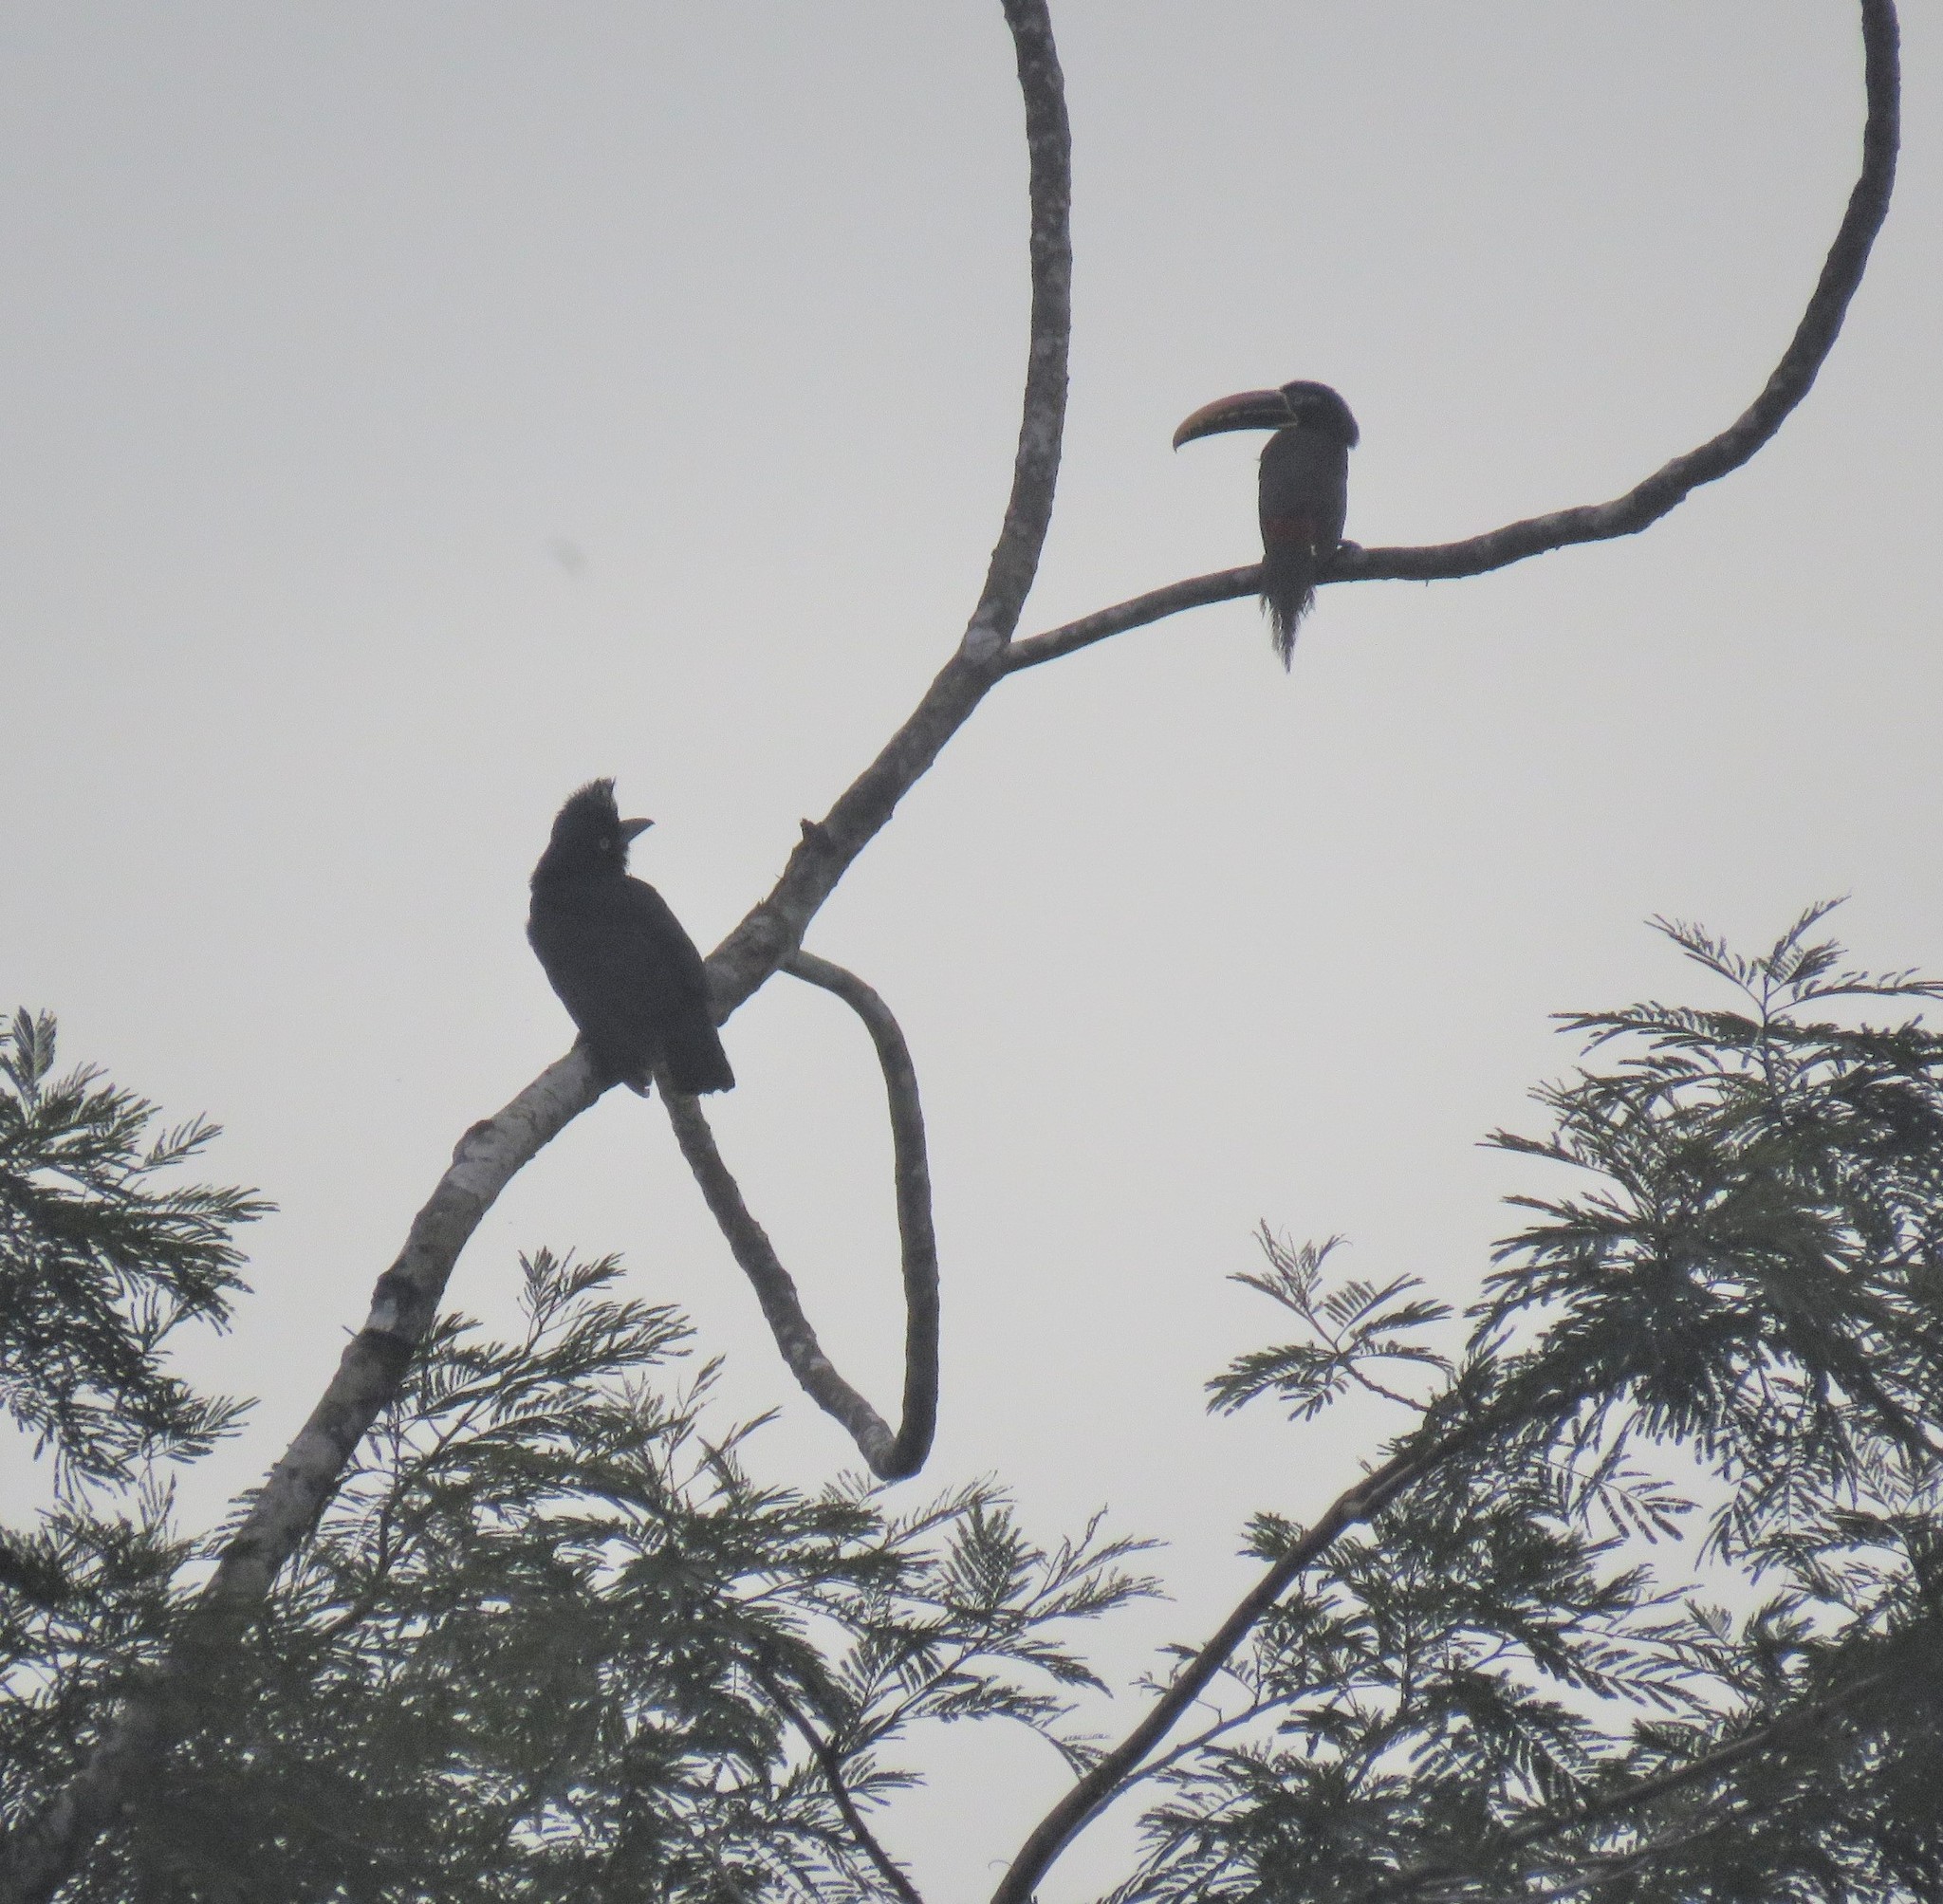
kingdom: Animalia
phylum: Chordata
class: Aves
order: Piciformes
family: Ramphastidae
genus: Pteroglossus
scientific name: Pteroglossus castanotis
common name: Chestnut-eared aracari
